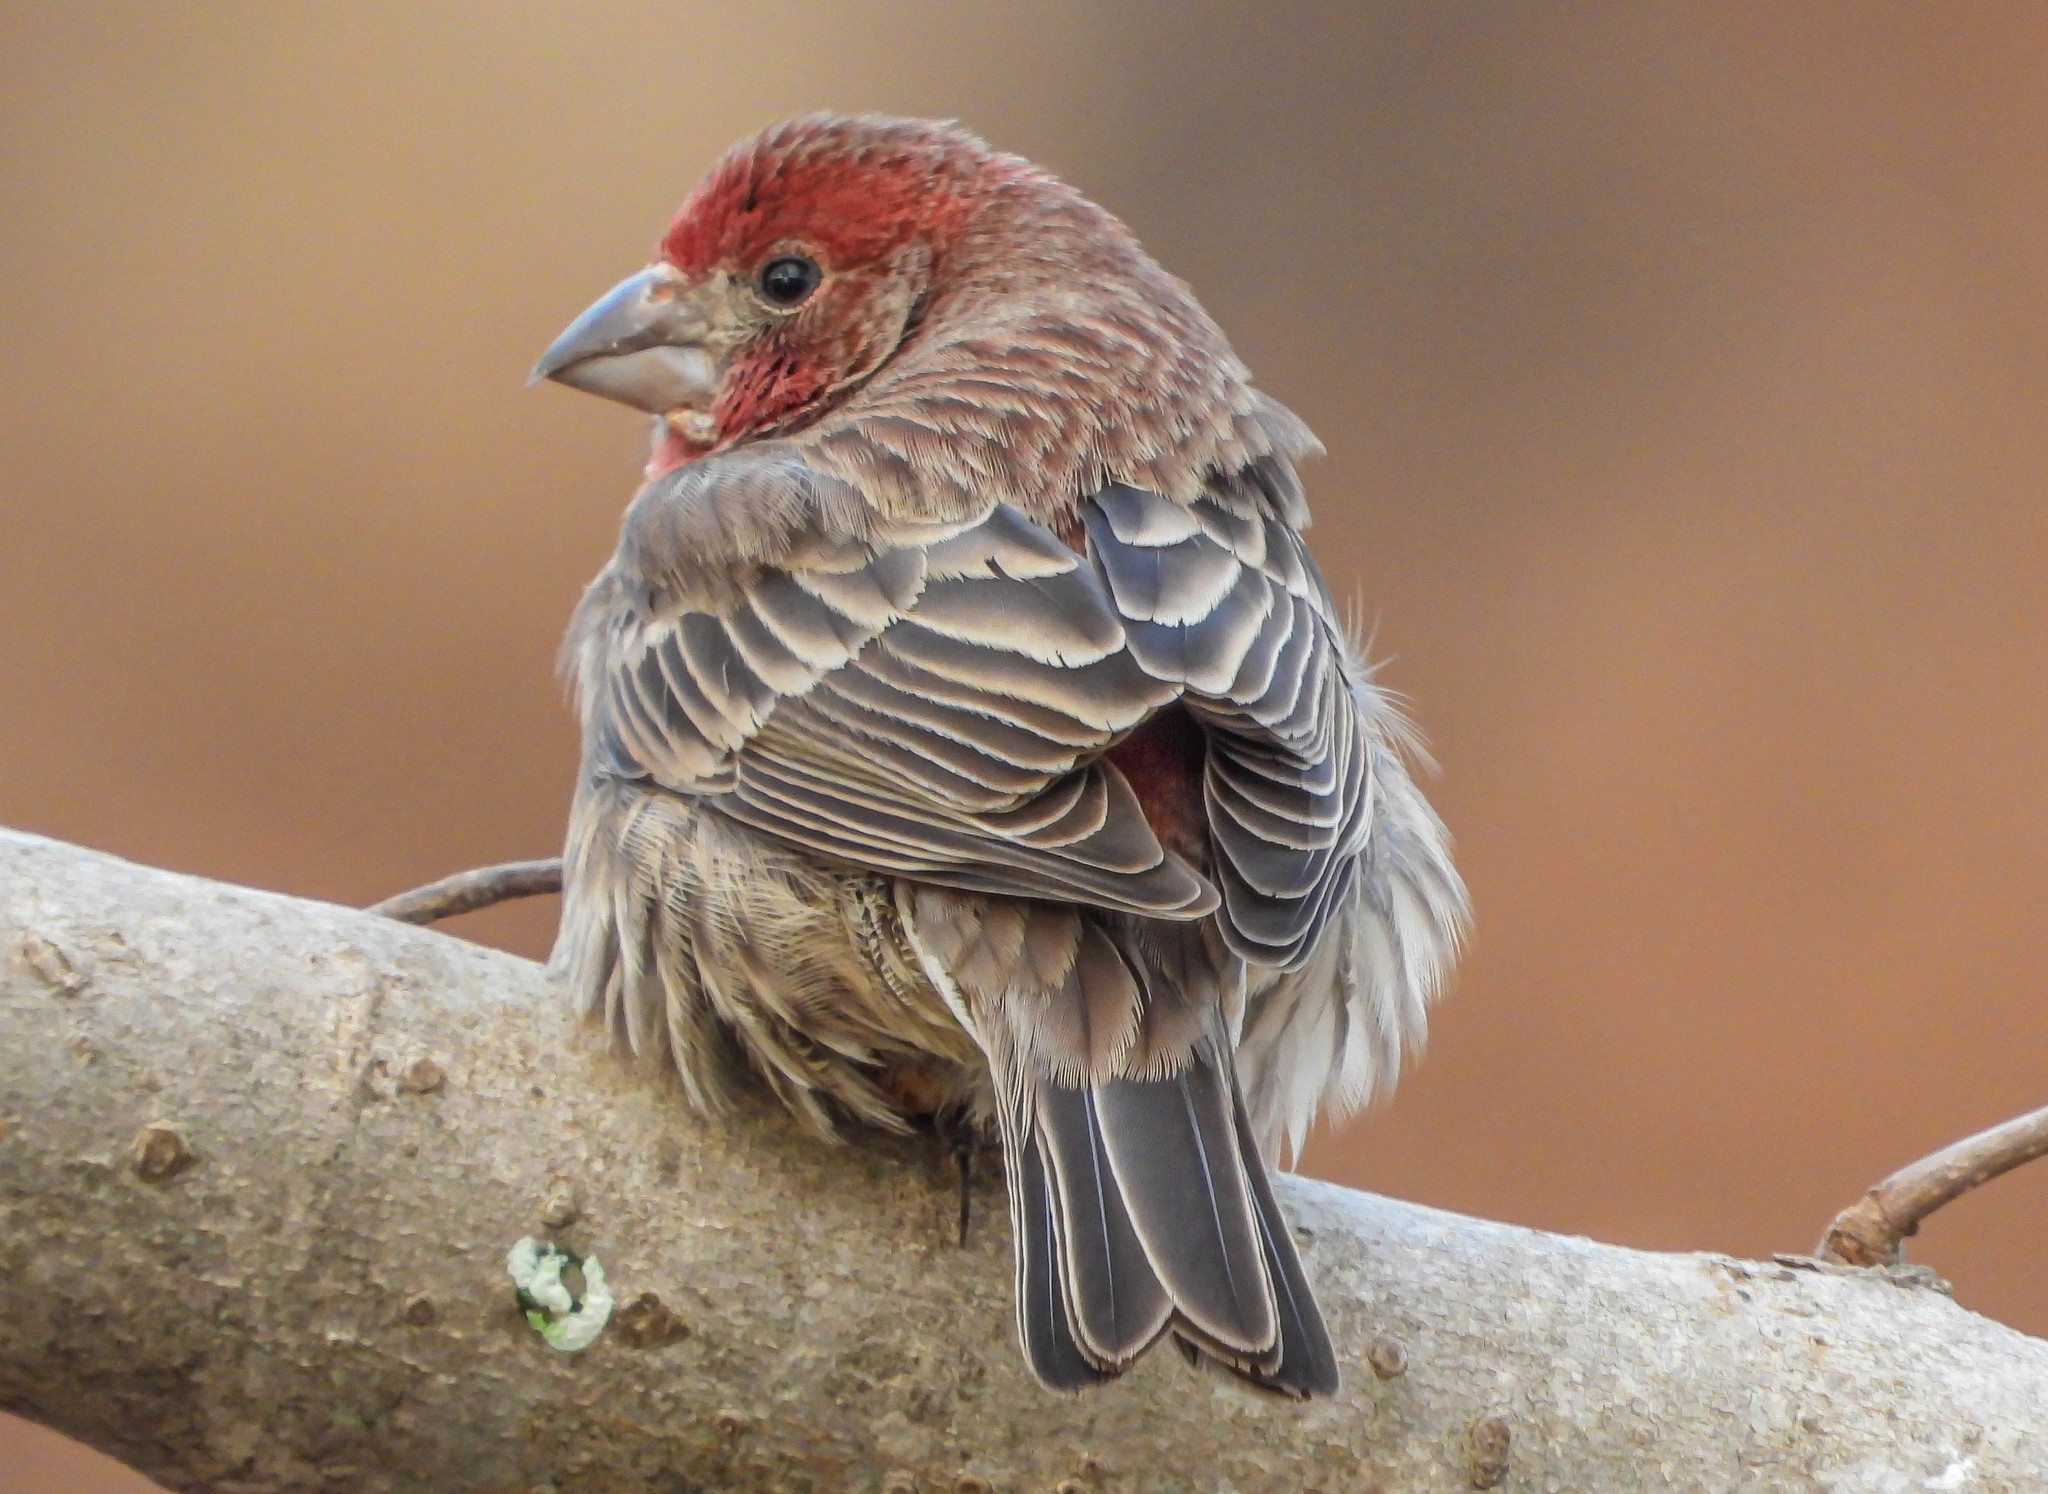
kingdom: Animalia
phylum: Chordata
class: Aves
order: Passeriformes
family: Fringillidae
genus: Haemorhous
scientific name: Haemorhous mexicanus
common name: House finch
